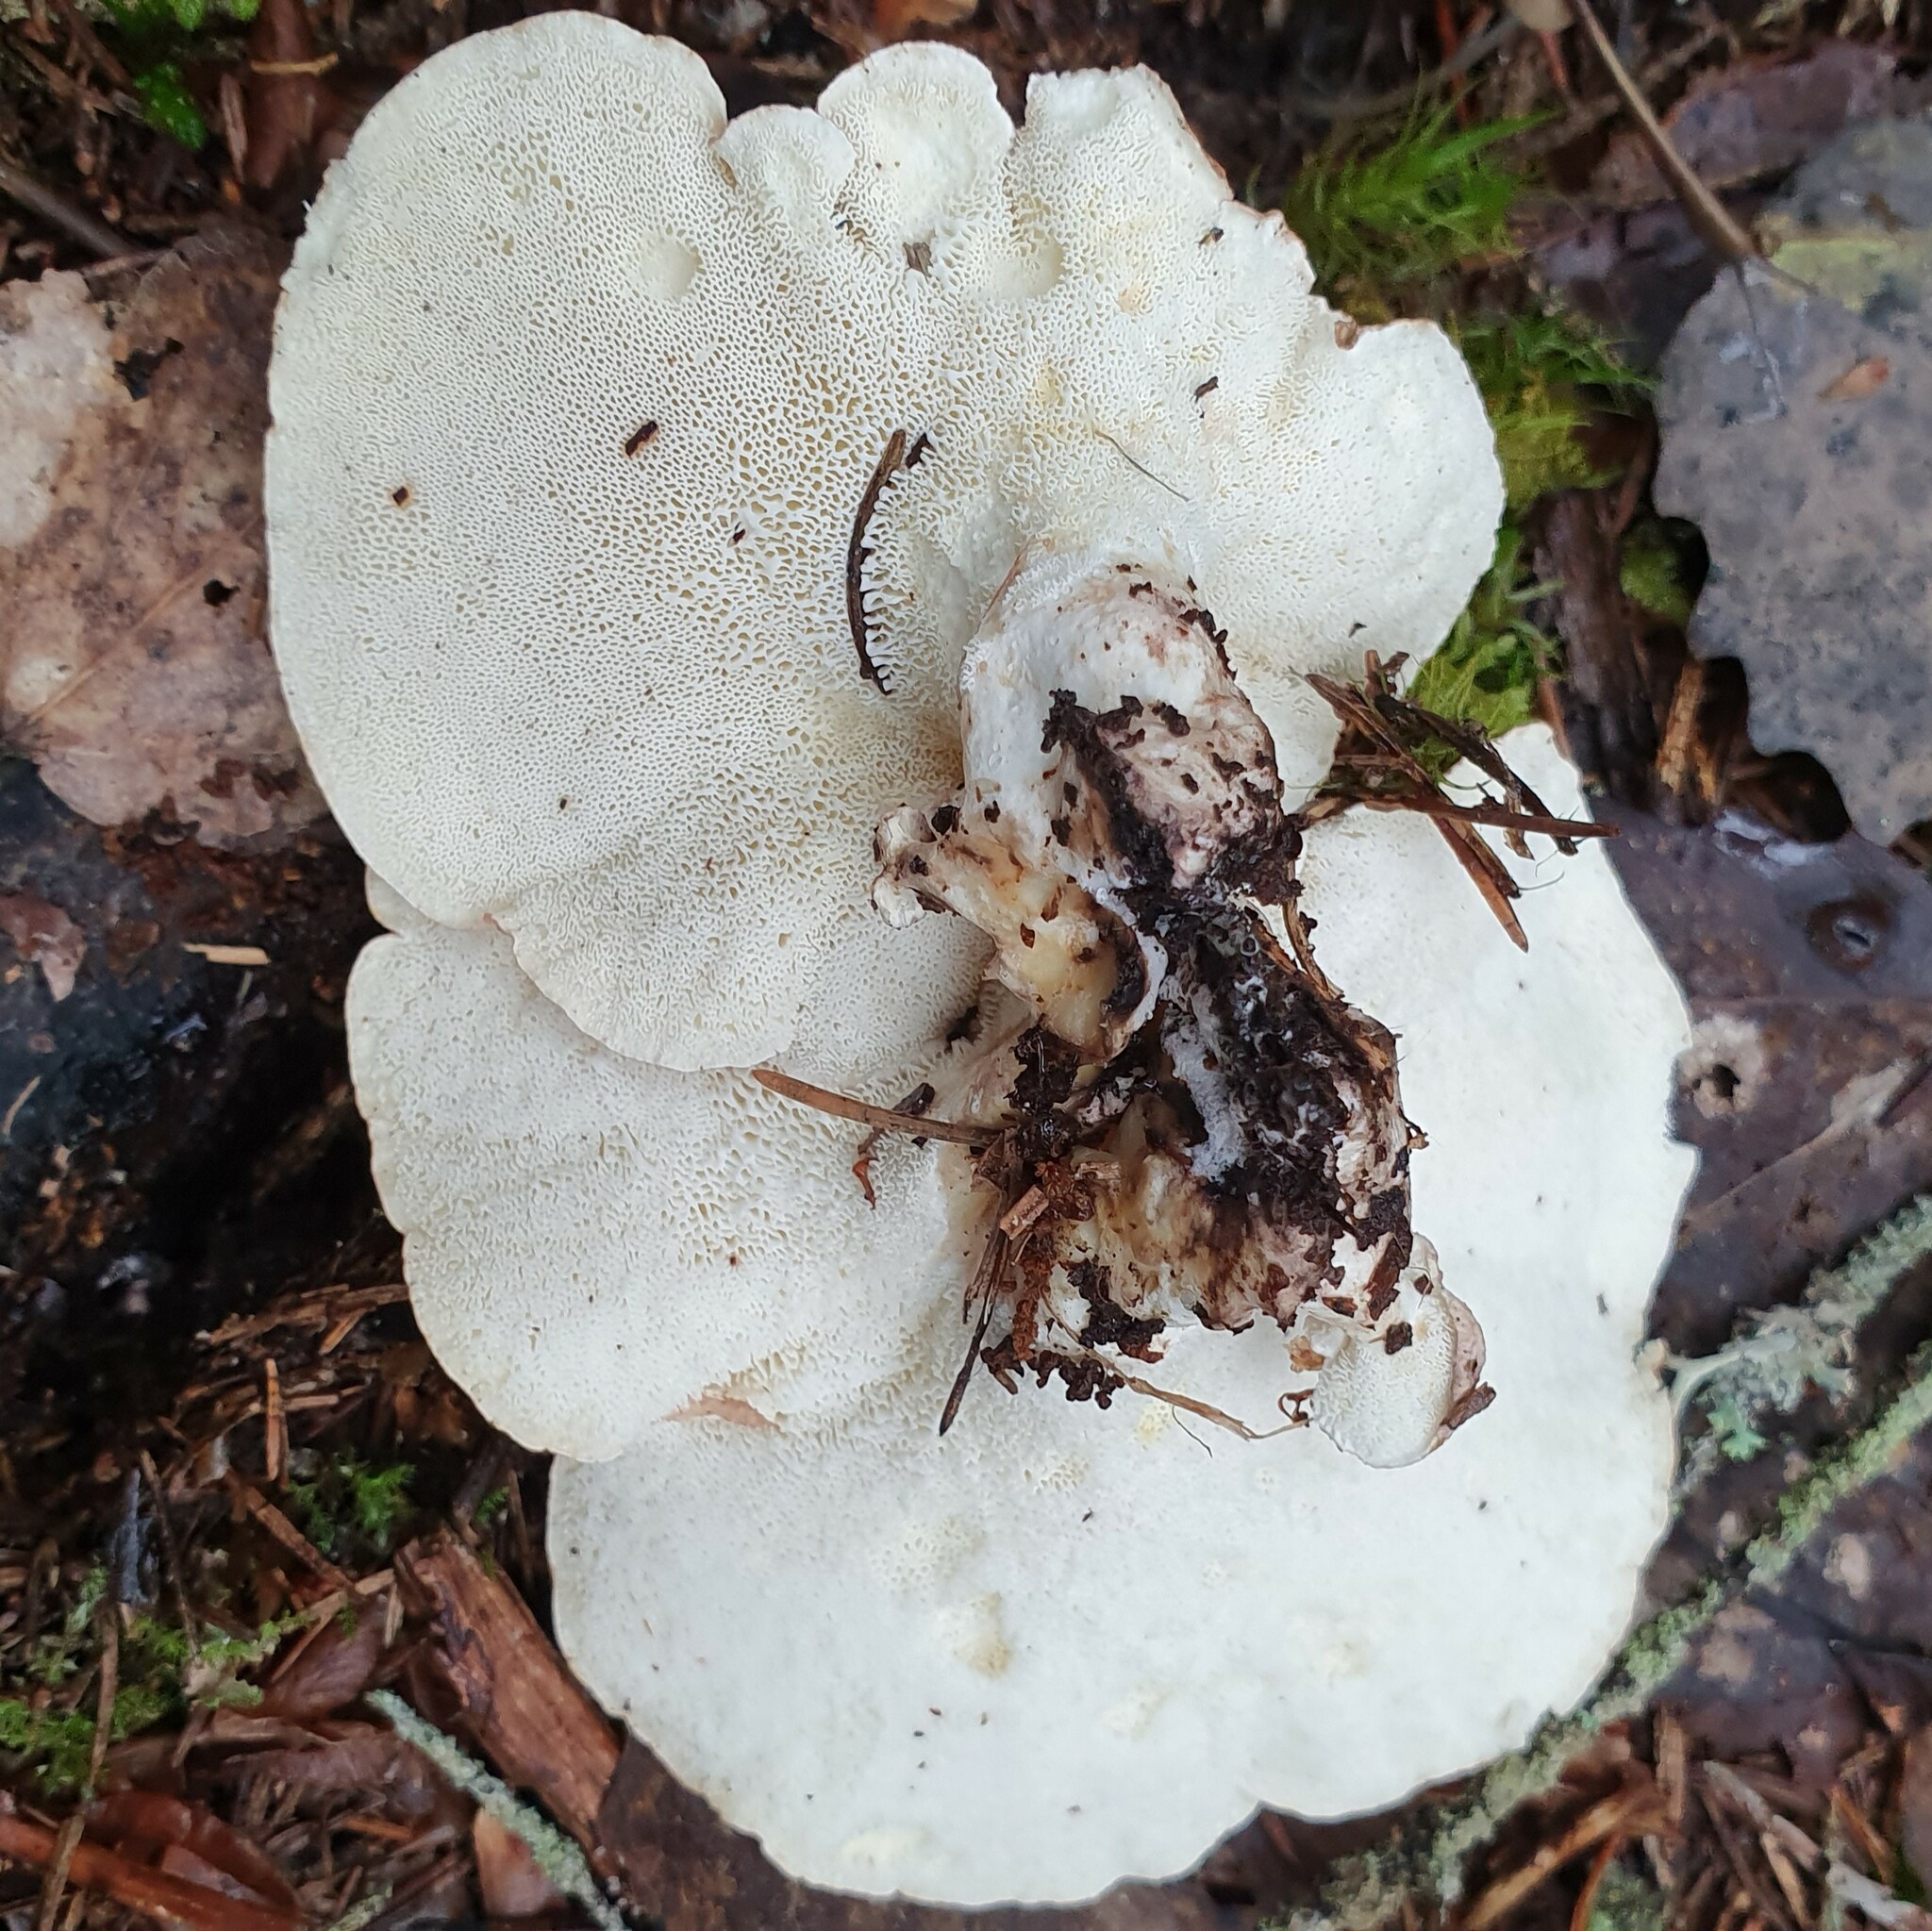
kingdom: Fungi
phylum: Basidiomycota
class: Agaricomycetes
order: Russulales
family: Albatrellaceae
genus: Albatrellus
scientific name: Albatrellus ovinus
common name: Forest lamb
